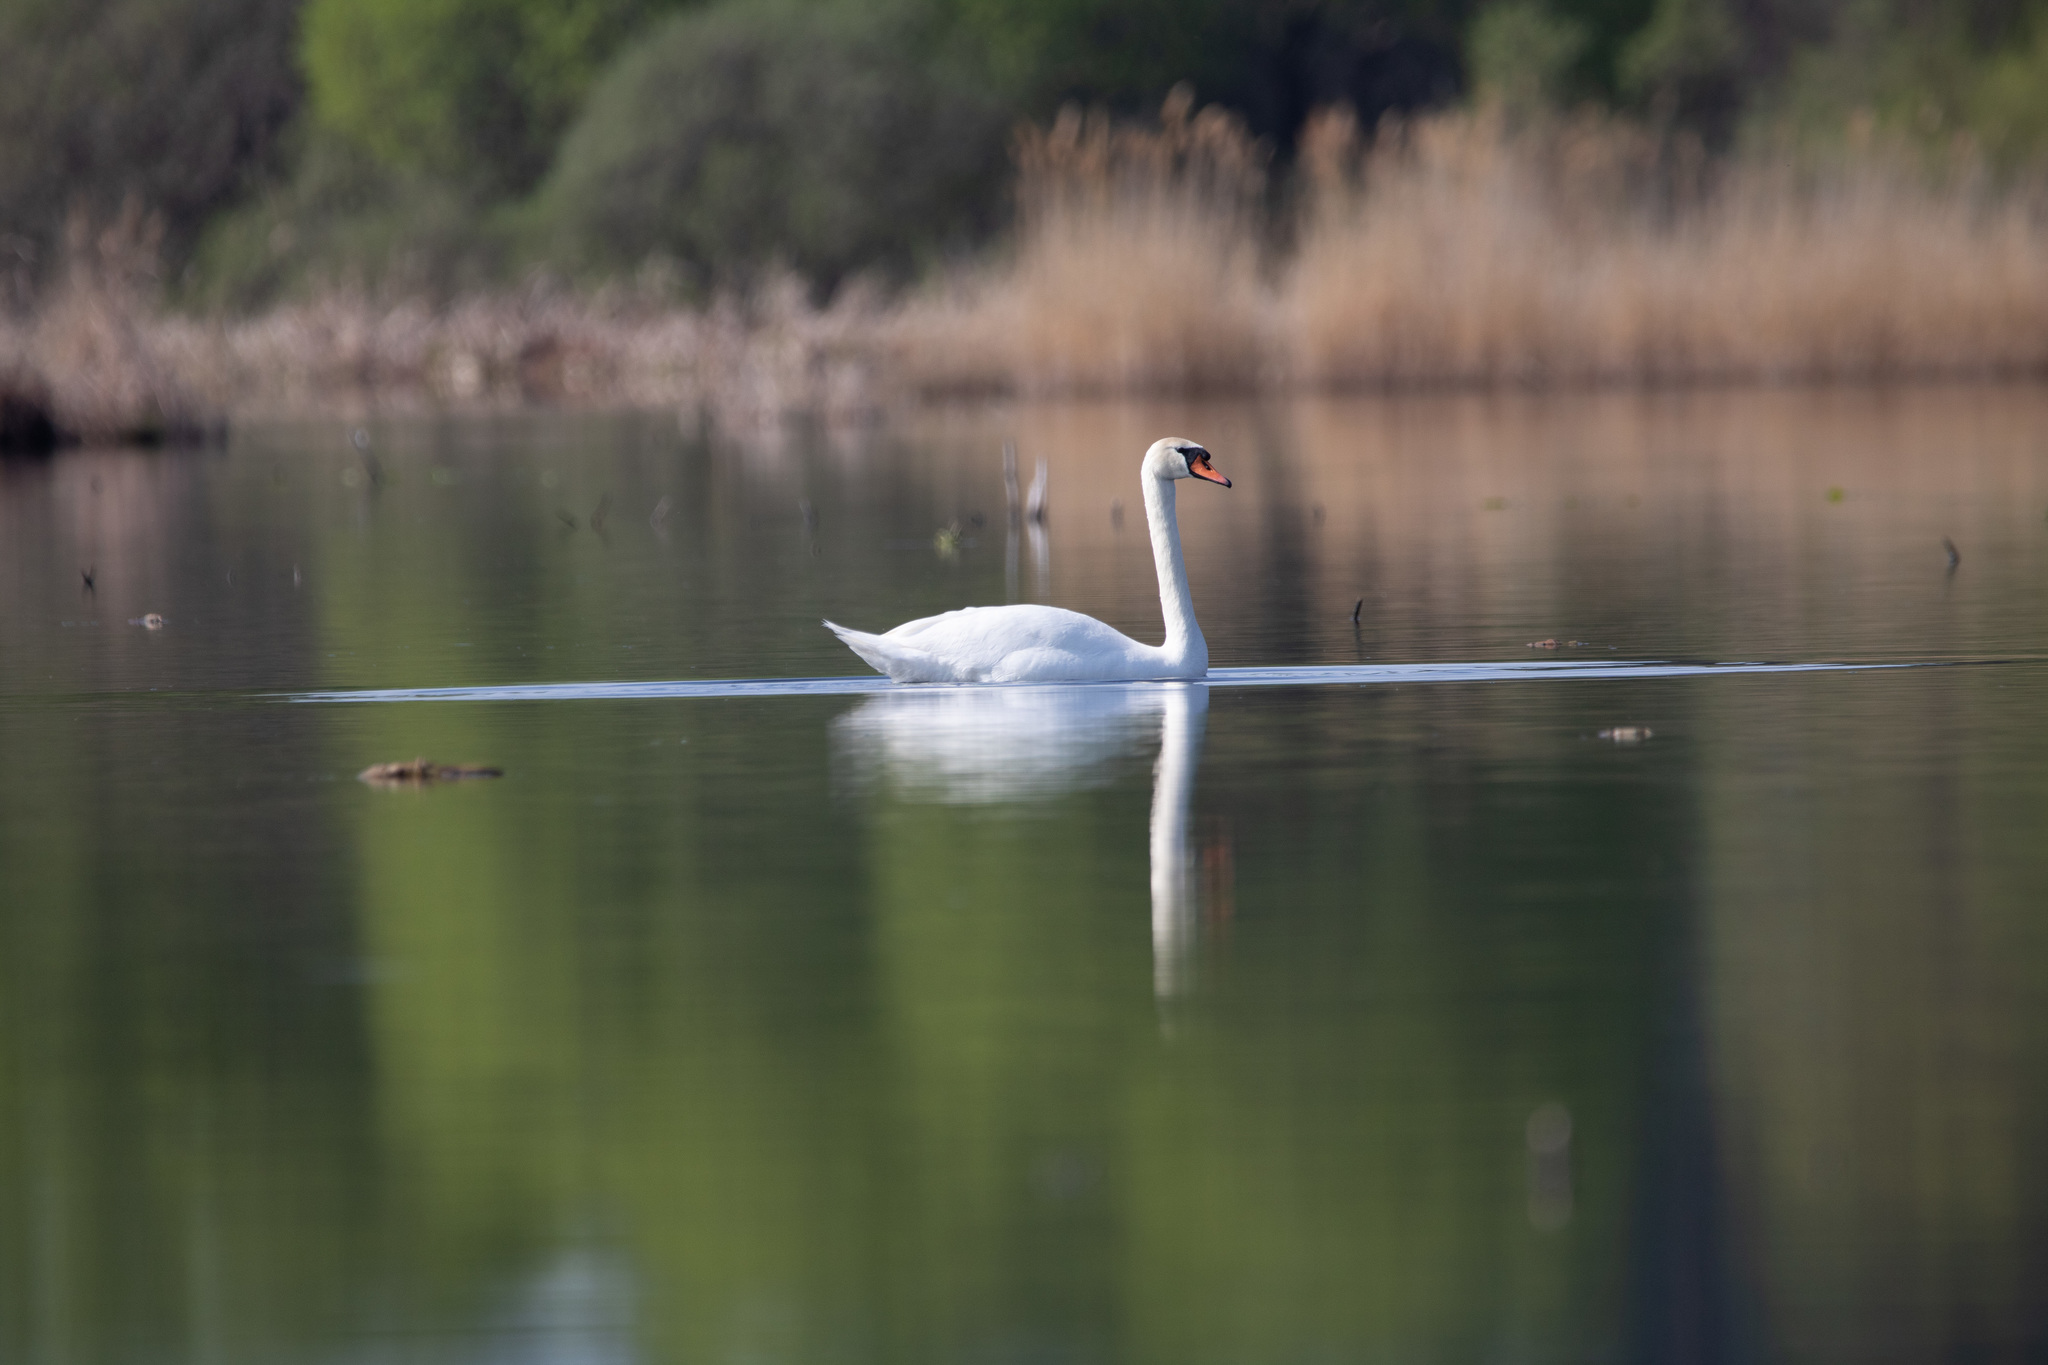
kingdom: Animalia
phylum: Chordata
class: Aves
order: Anseriformes
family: Anatidae
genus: Cygnus
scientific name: Cygnus olor
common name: Mute swan
